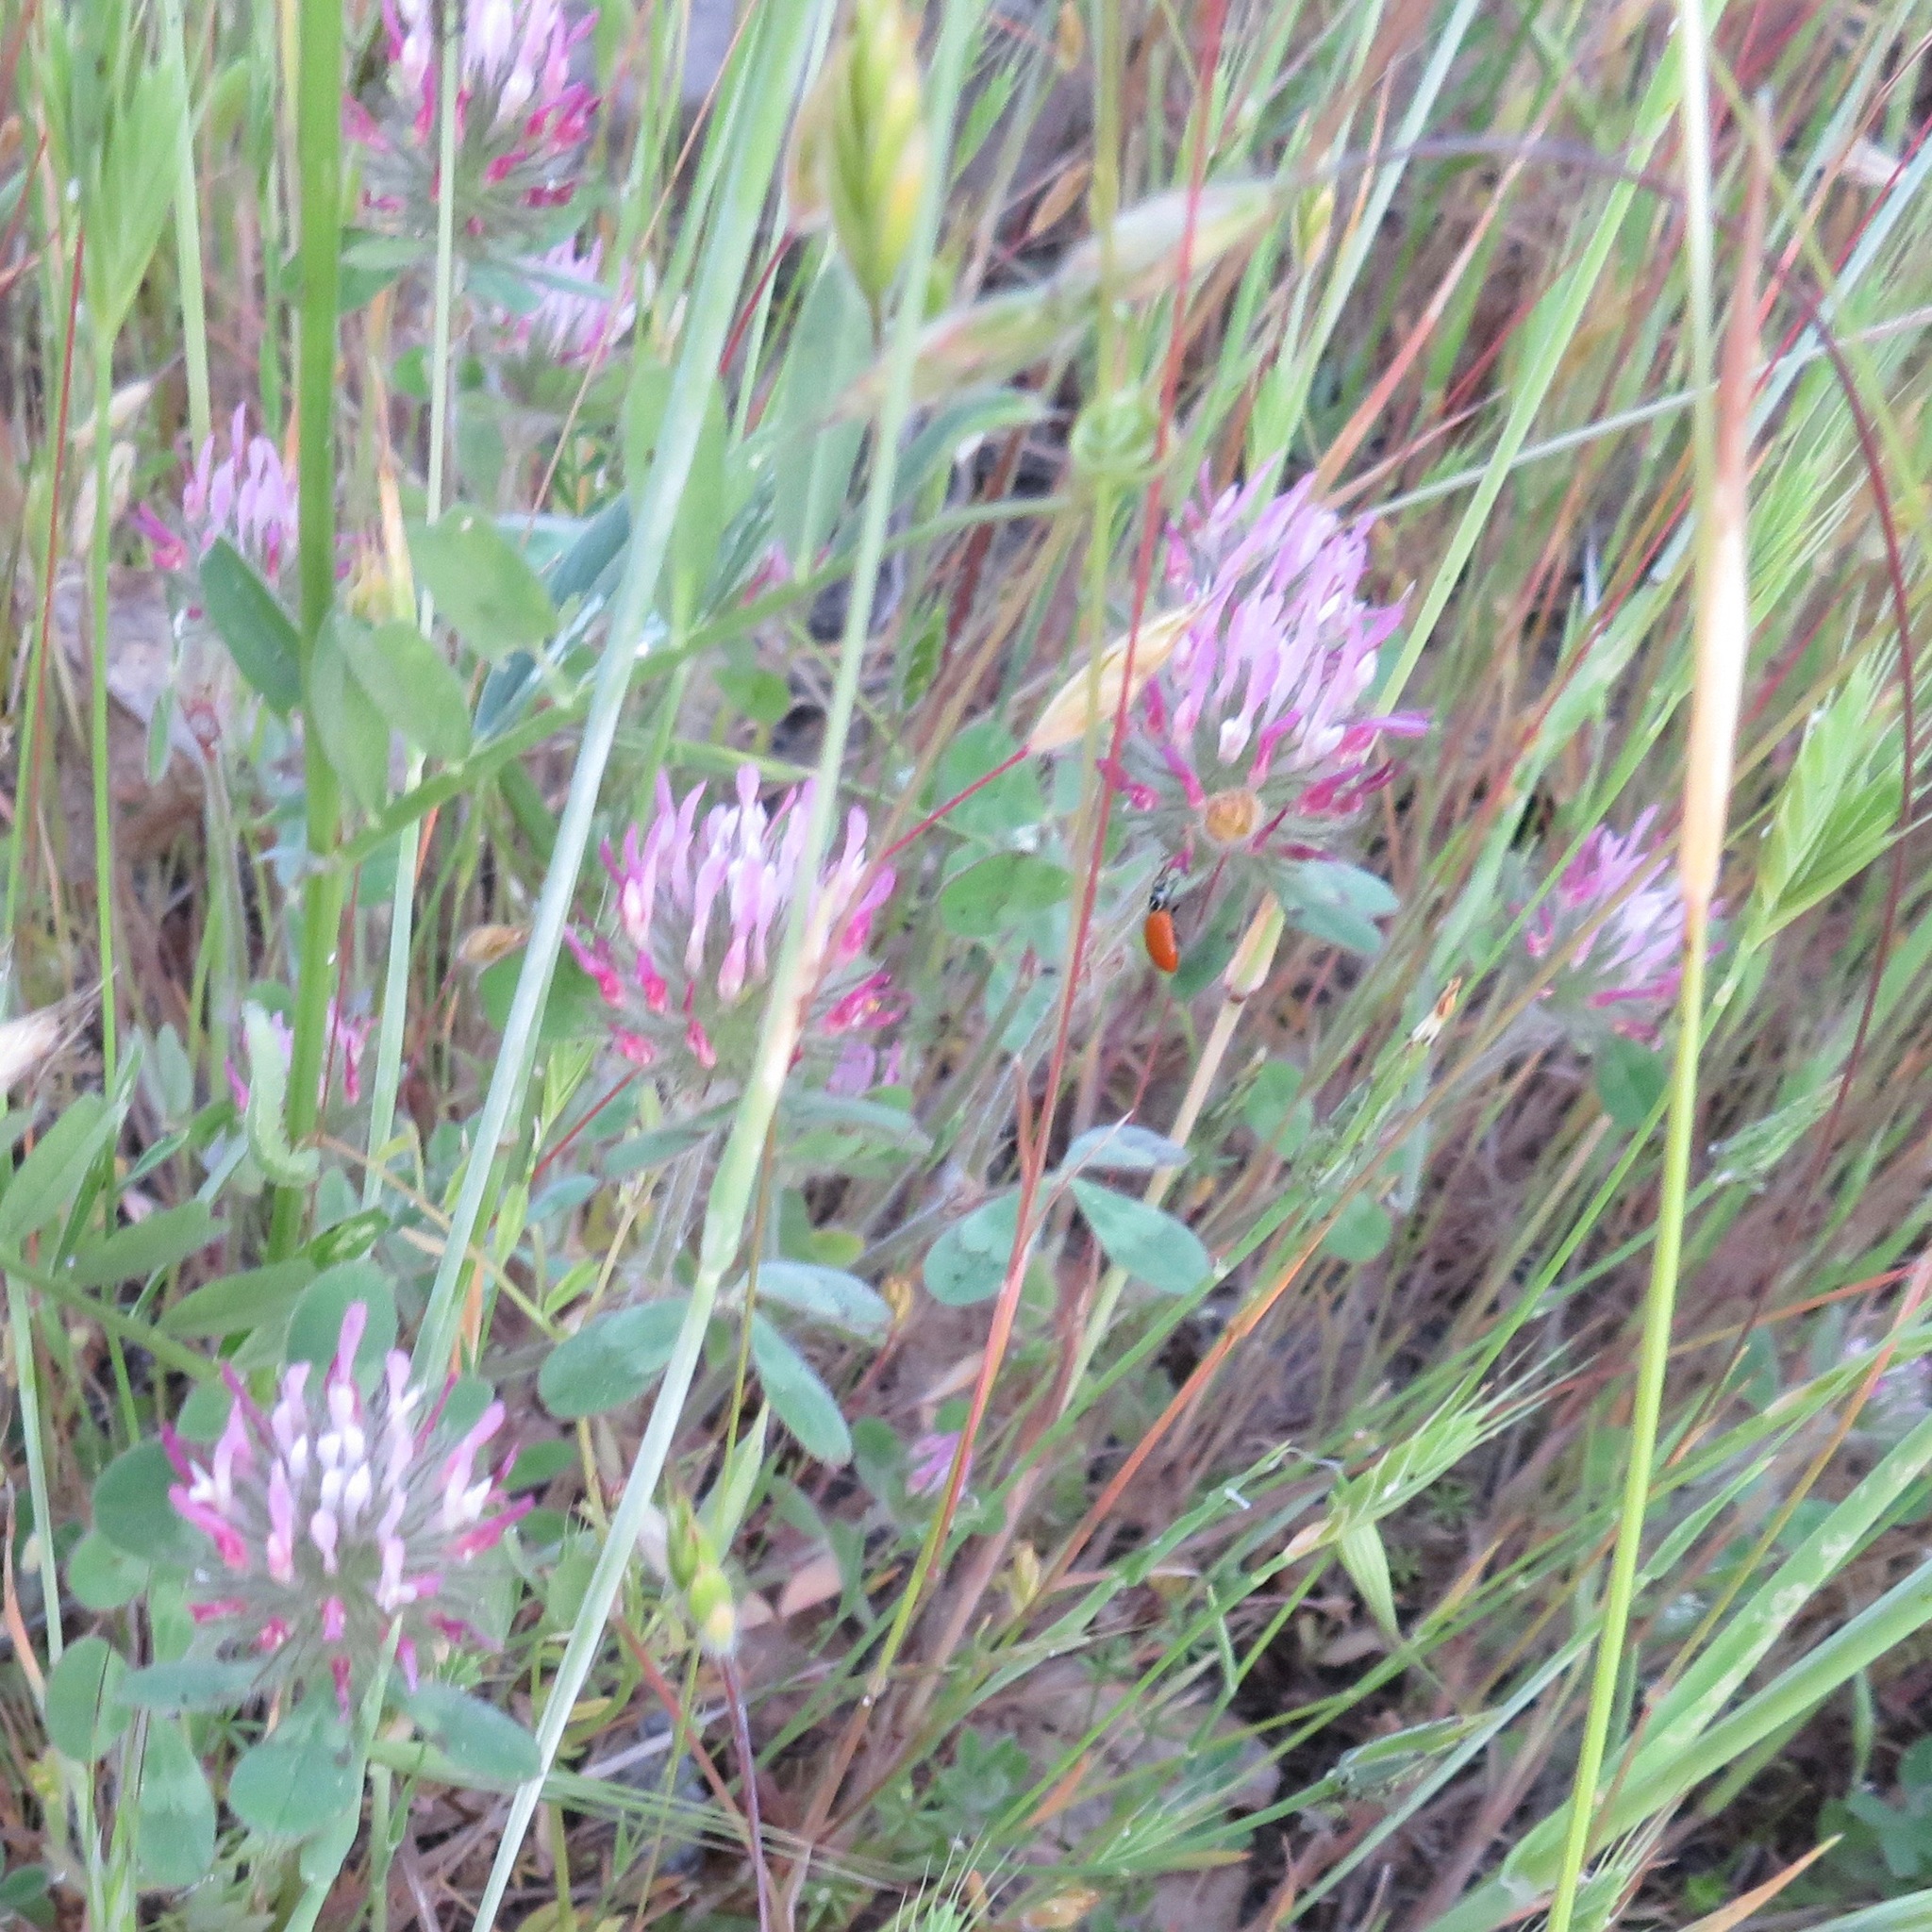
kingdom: Plantae
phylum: Tracheophyta
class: Magnoliopsida
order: Fabales
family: Fabaceae
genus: Trifolium
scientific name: Trifolium hirtum
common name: Rose clover
